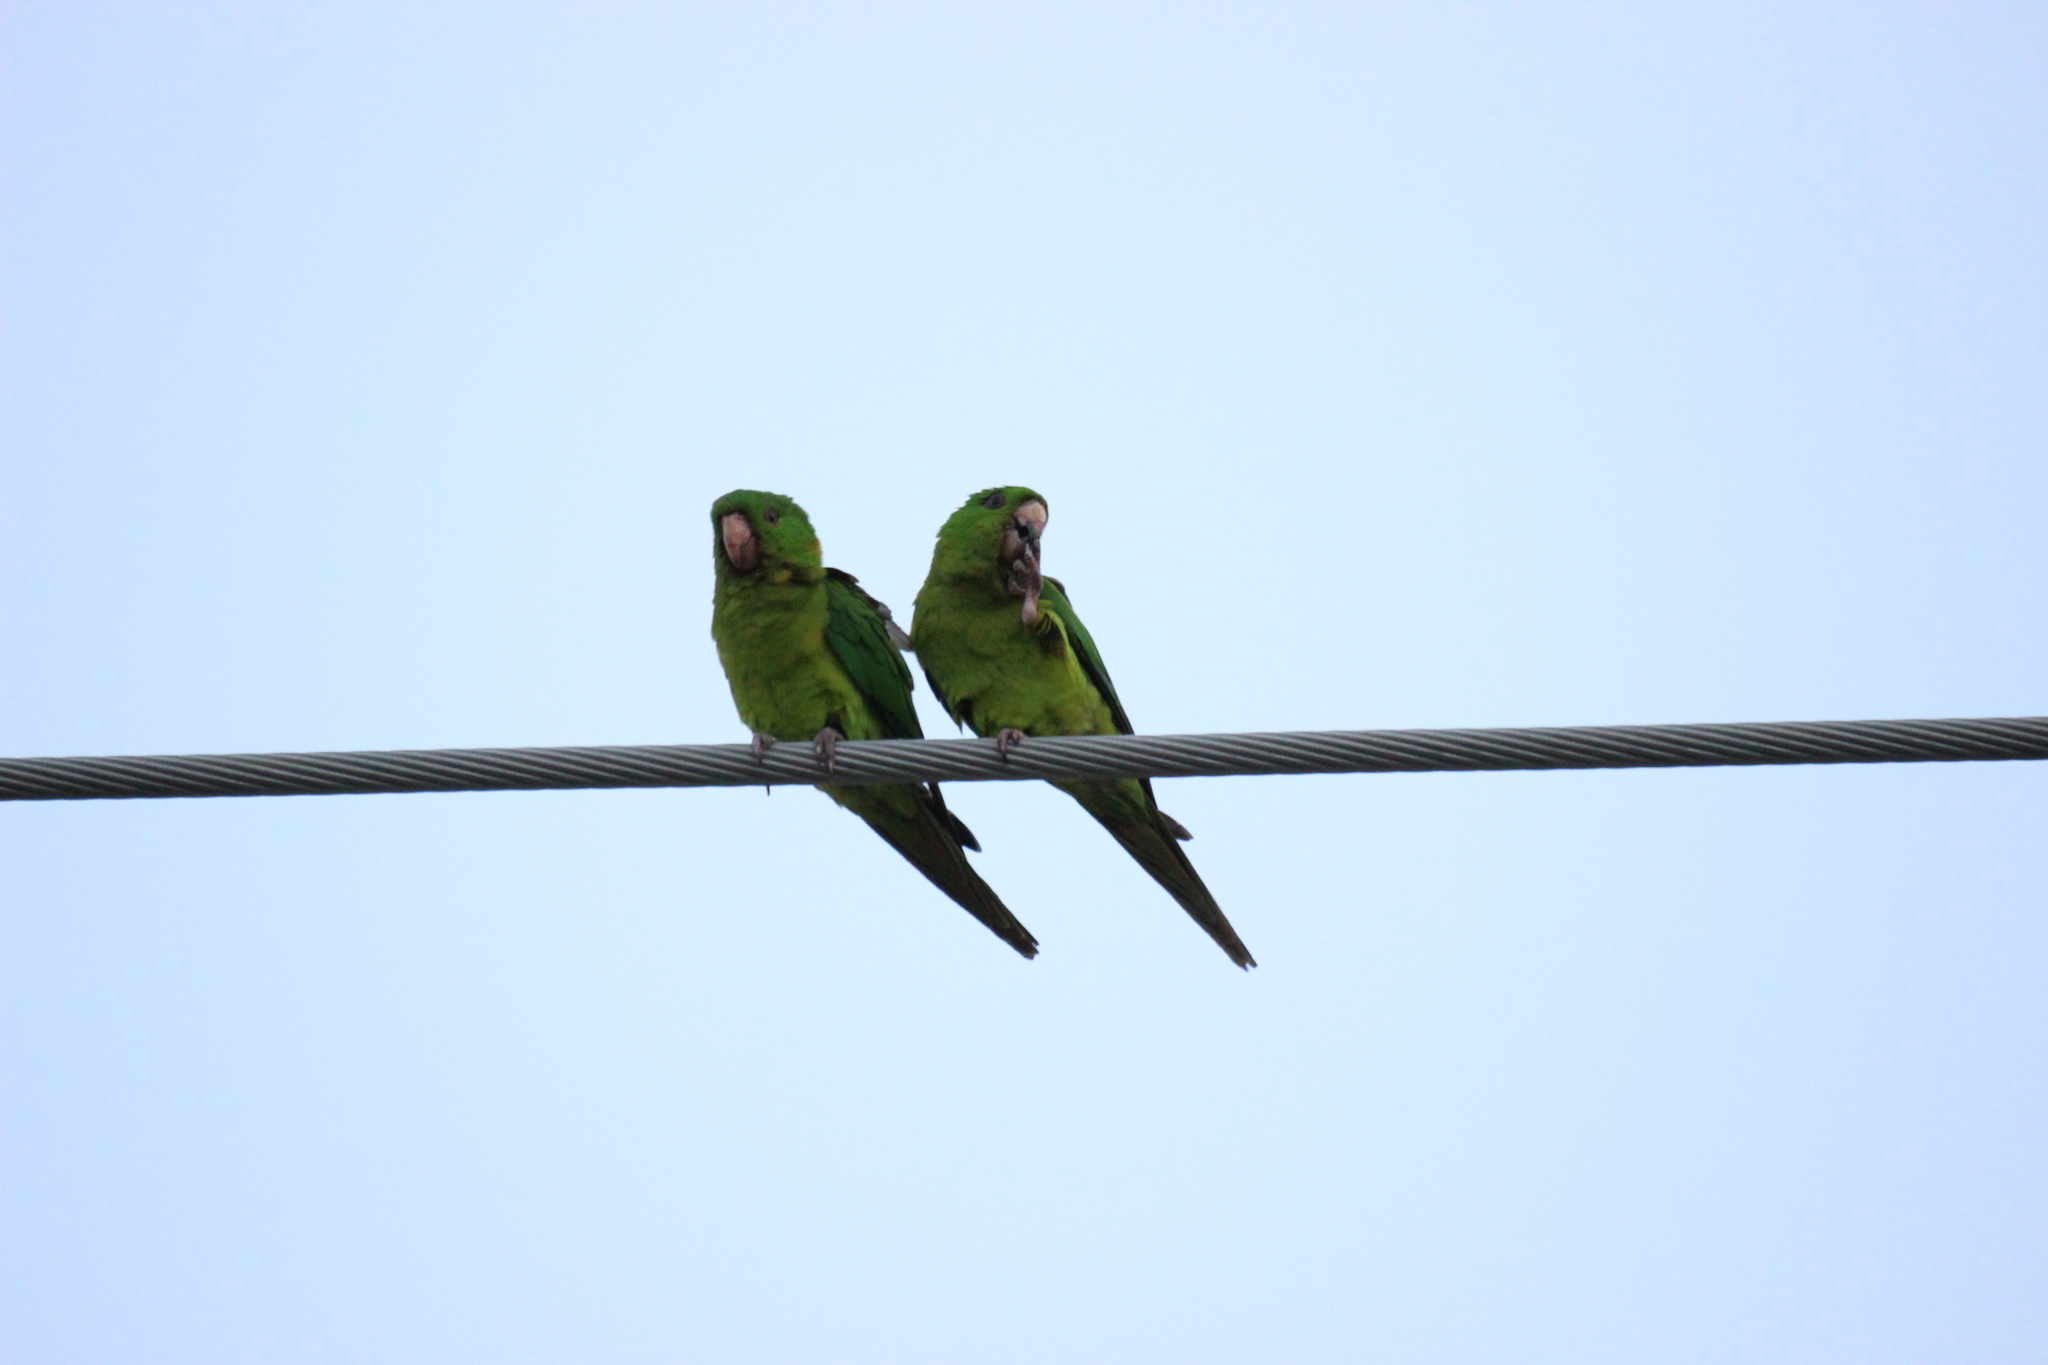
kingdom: Animalia
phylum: Chordata
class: Aves
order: Psittaciformes
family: Psittacidae
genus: Aratinga
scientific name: Aratinga holochlora
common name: Green parakeet
